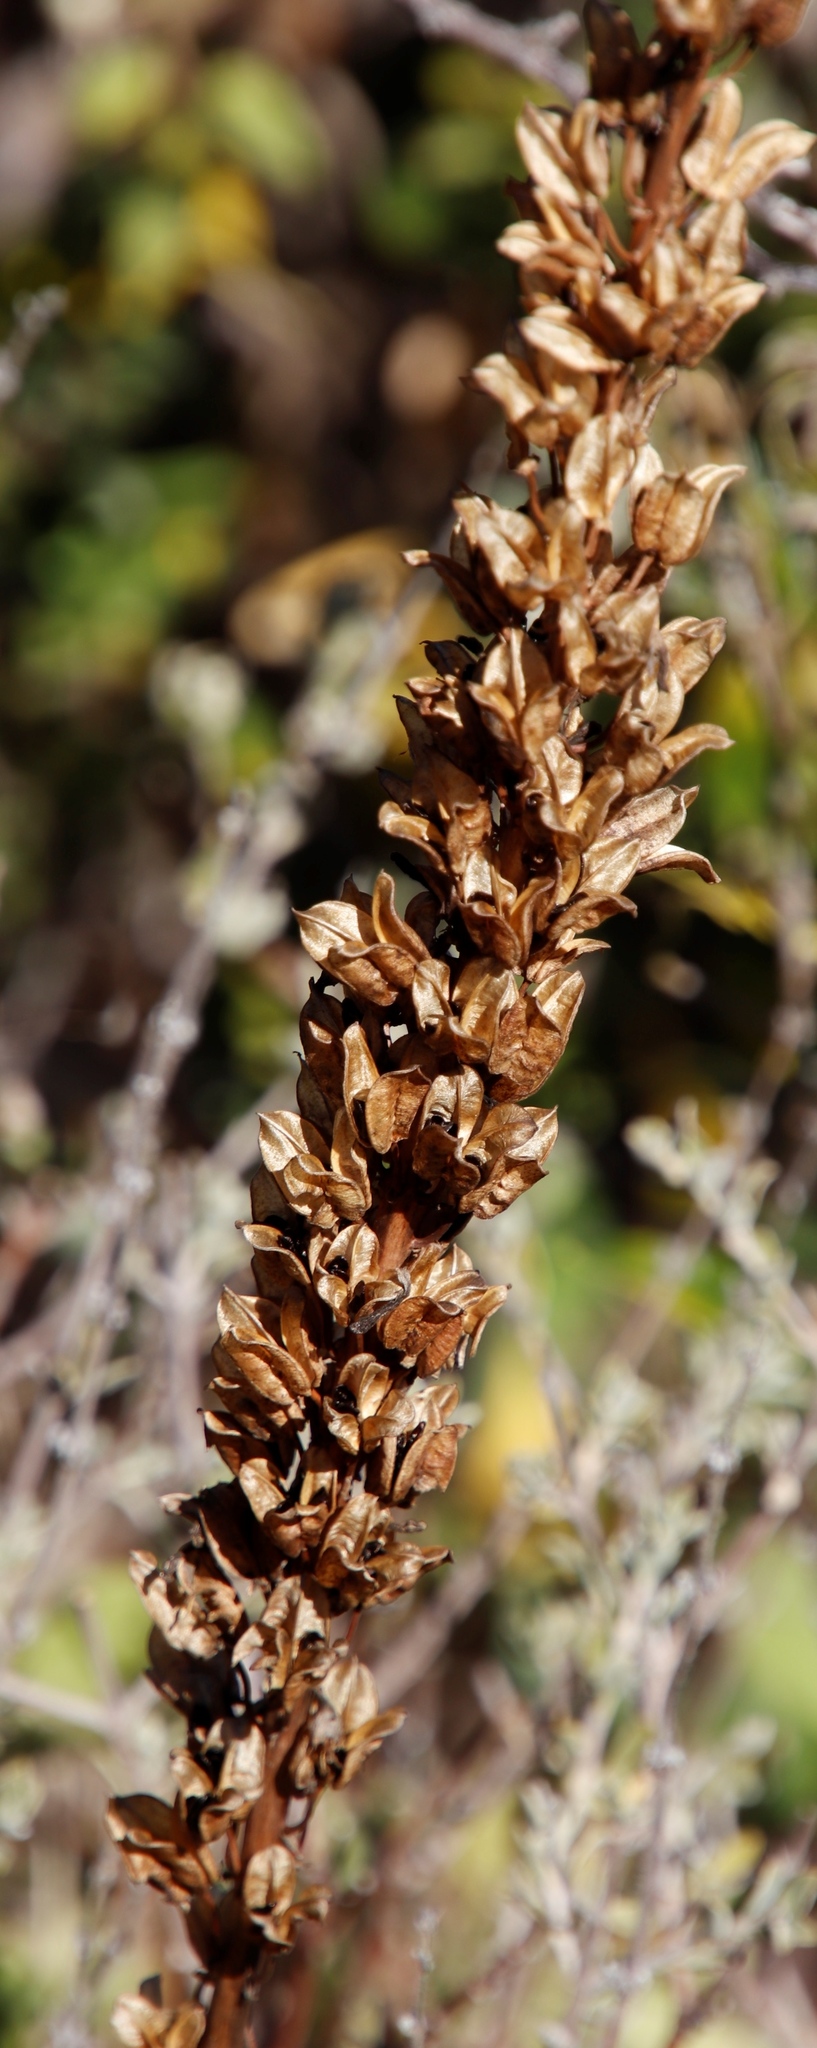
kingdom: Plantae
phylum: Tracheophyta
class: Liliopsida
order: Asparagales
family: Asparagaceae
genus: Drimia
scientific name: Drimia elata
